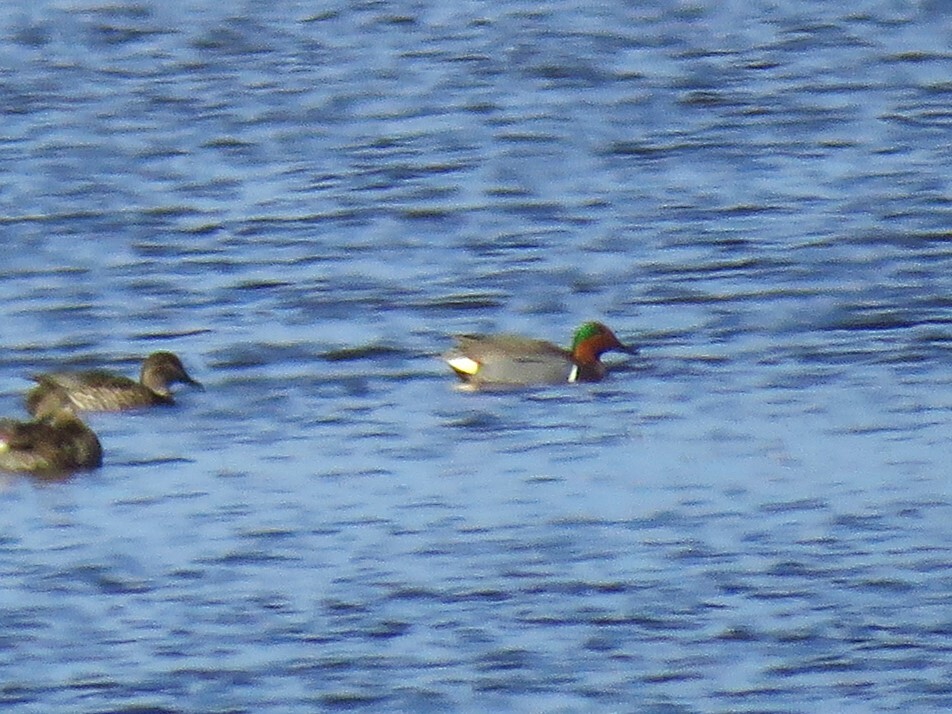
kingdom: Animalia
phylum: Chordata
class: Aves
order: Anseriformes
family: Anatidae
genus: Anas
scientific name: Anas crecca
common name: Eurasian teal
